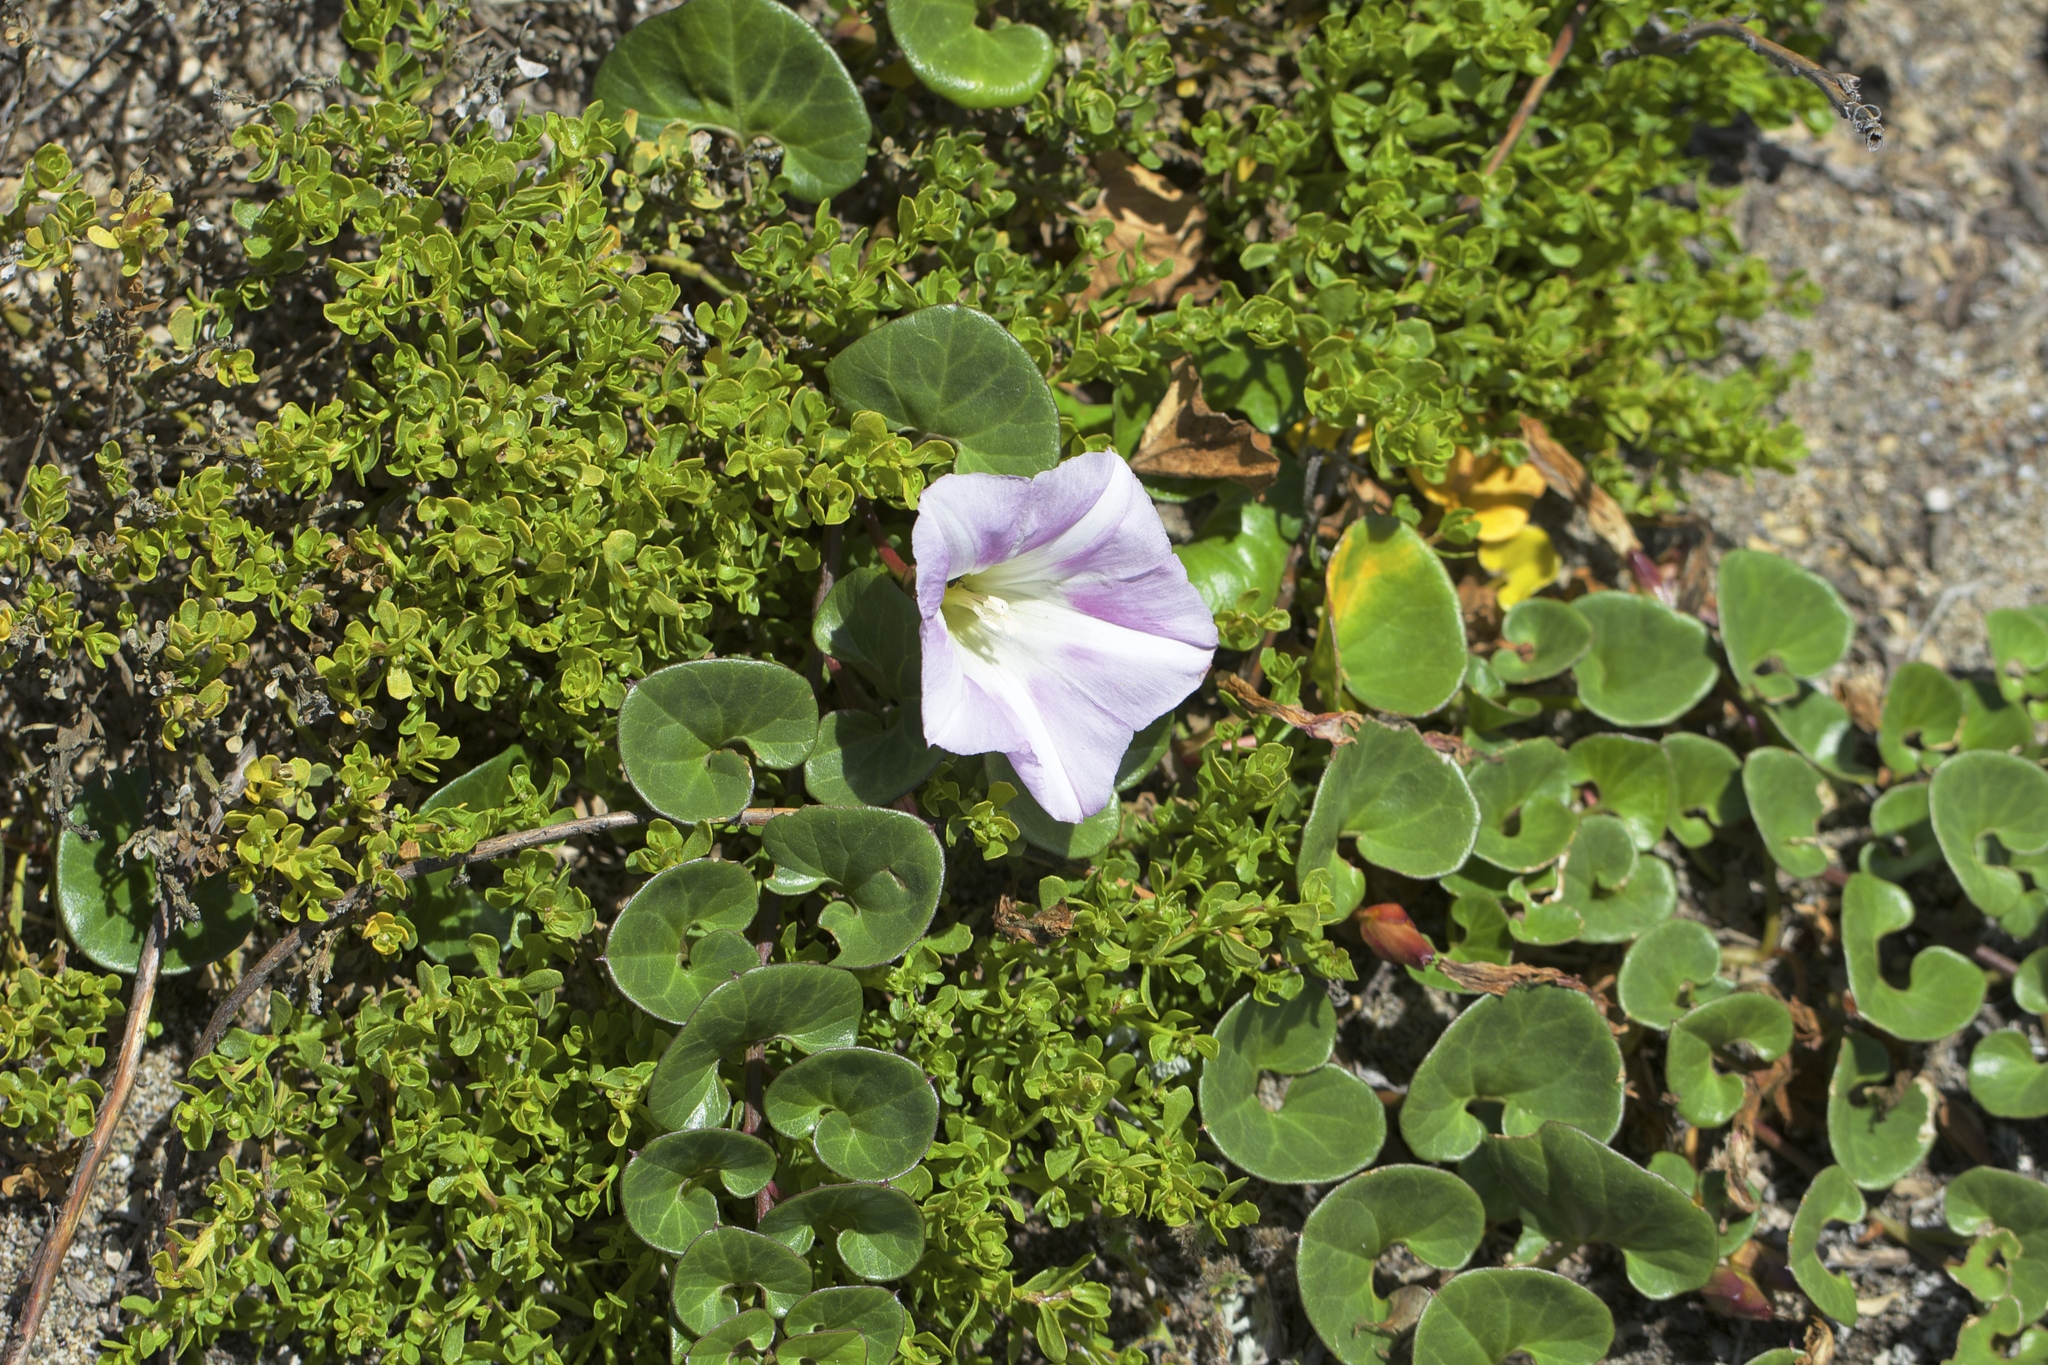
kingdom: Plantae
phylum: Tracheophyta
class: Magnoliopsida
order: Solanales
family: Convolvulaceae
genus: Calystegia
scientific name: Calystegia soldanella
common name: Sea bindweed
